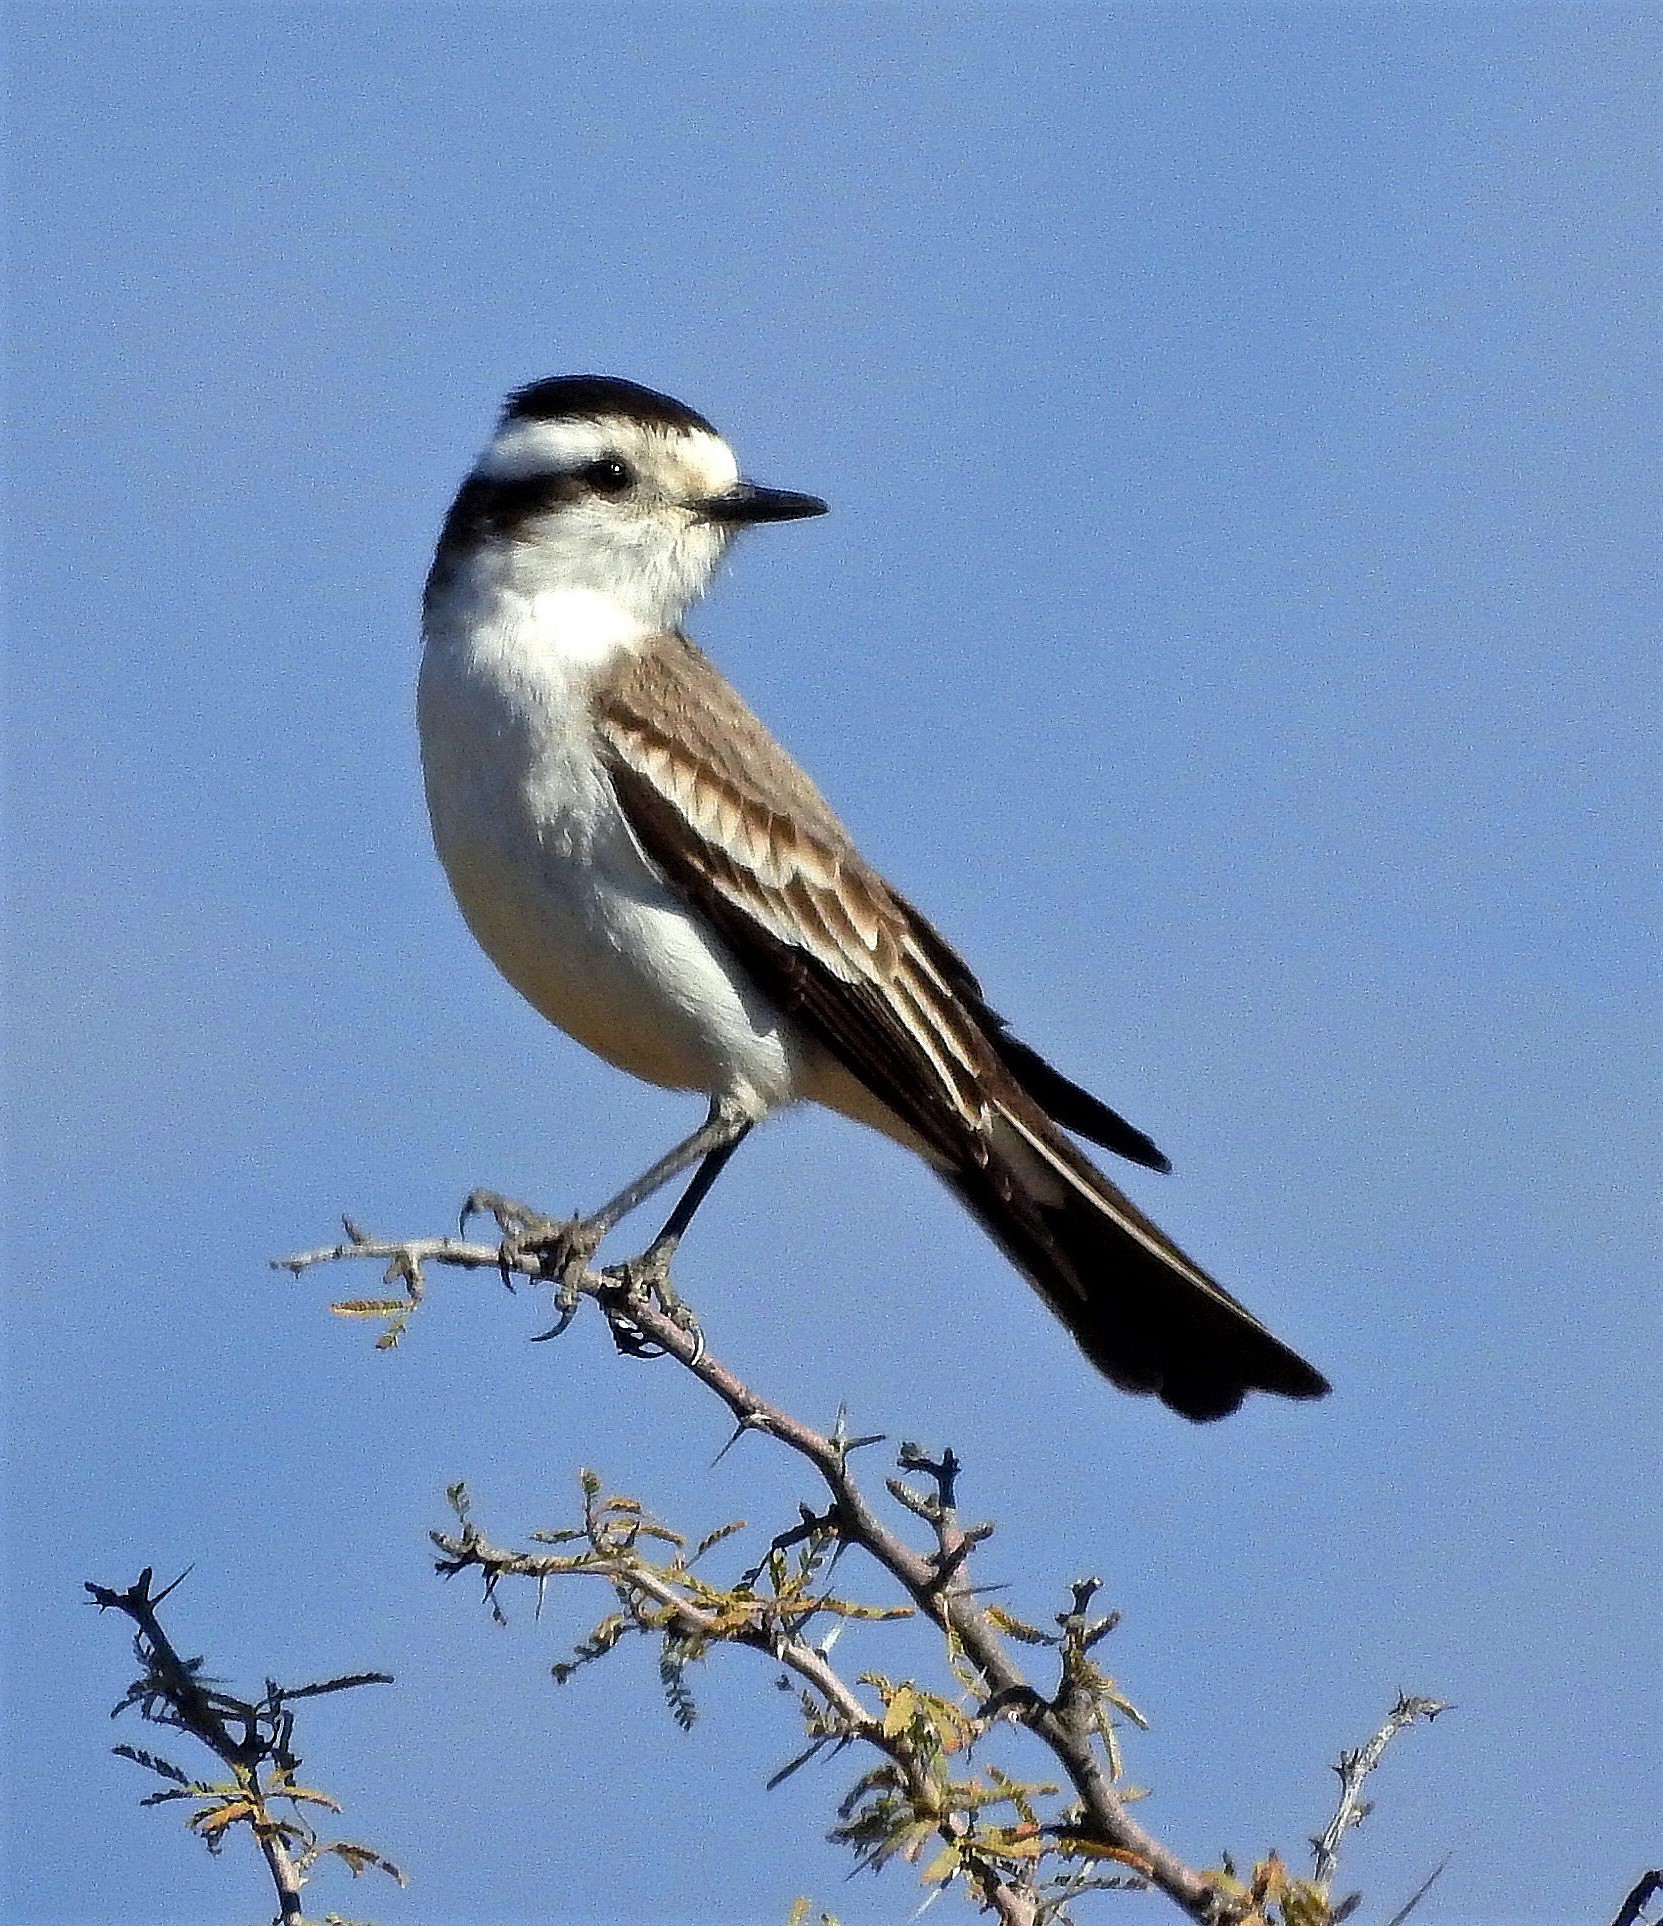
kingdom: Animalia
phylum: Chordata
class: Aves
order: Passeriformes
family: Tyrannidae
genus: Xolmis
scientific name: Xolmis coronatus
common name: Black-crowned monjita
